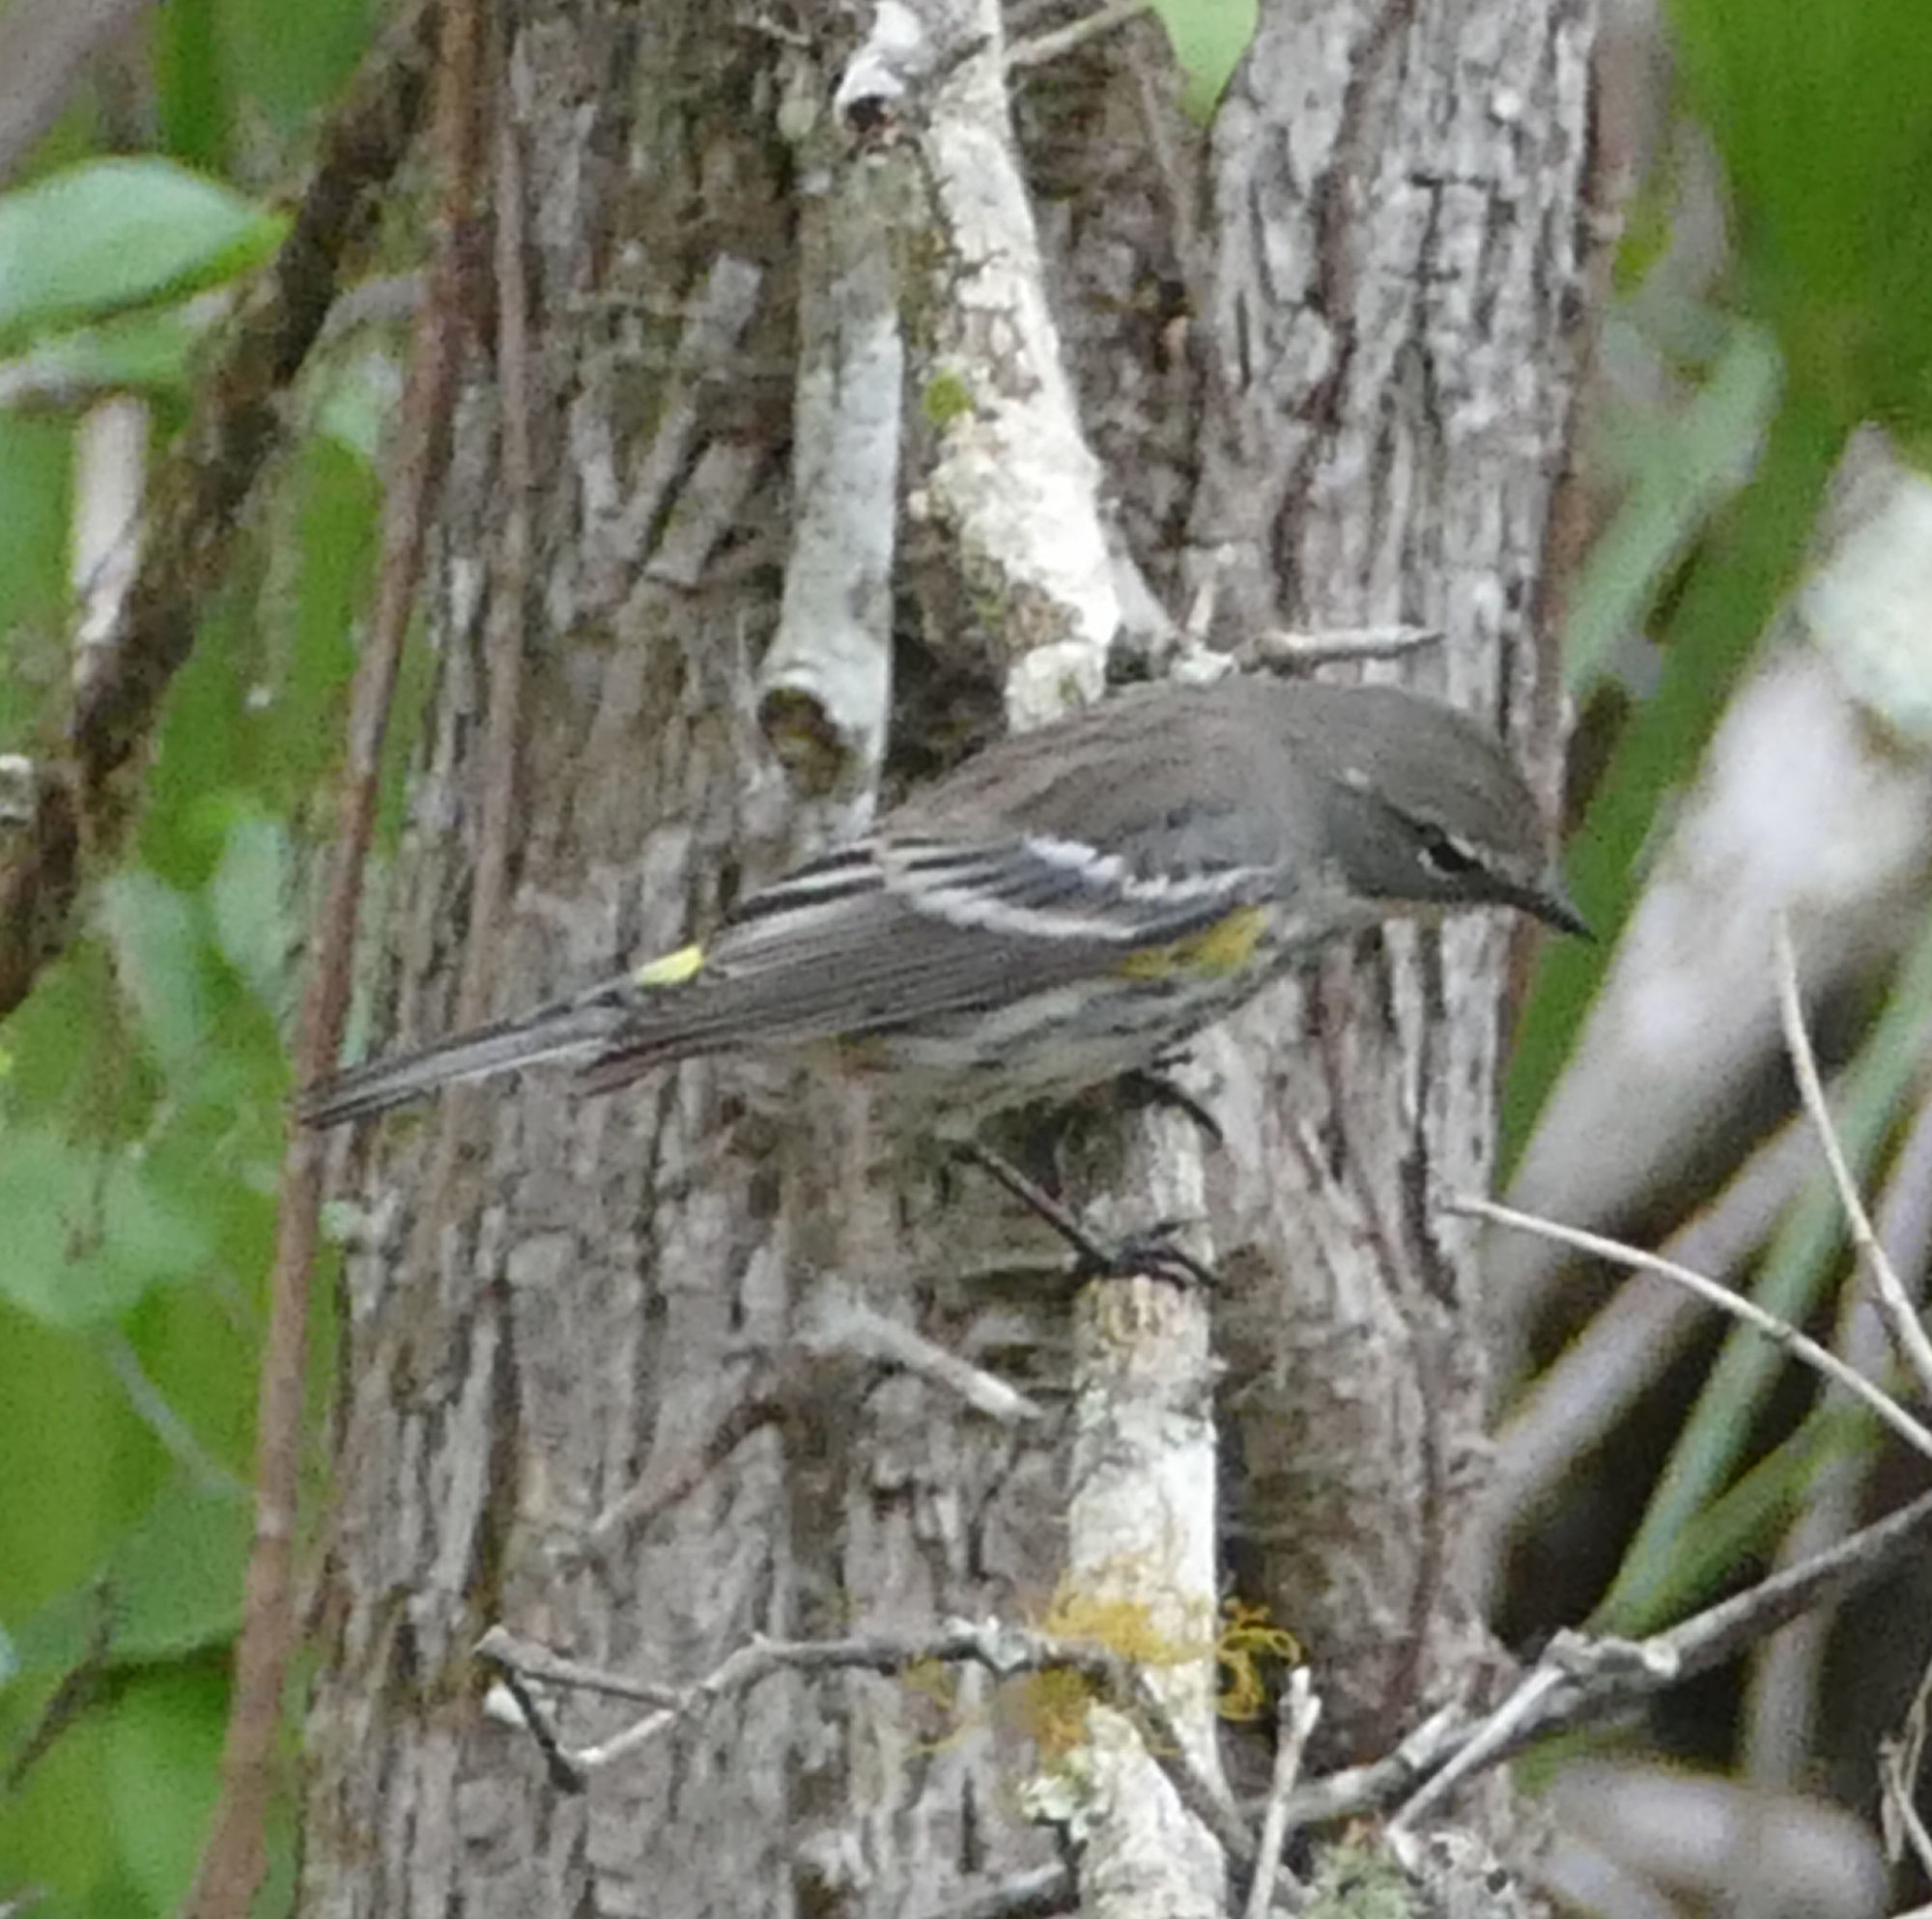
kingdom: Animalia
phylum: Chordata
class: Aves
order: Passeriformes
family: Parulidae
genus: Setophaga
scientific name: Setophaga coronata
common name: Myrtle warbler
